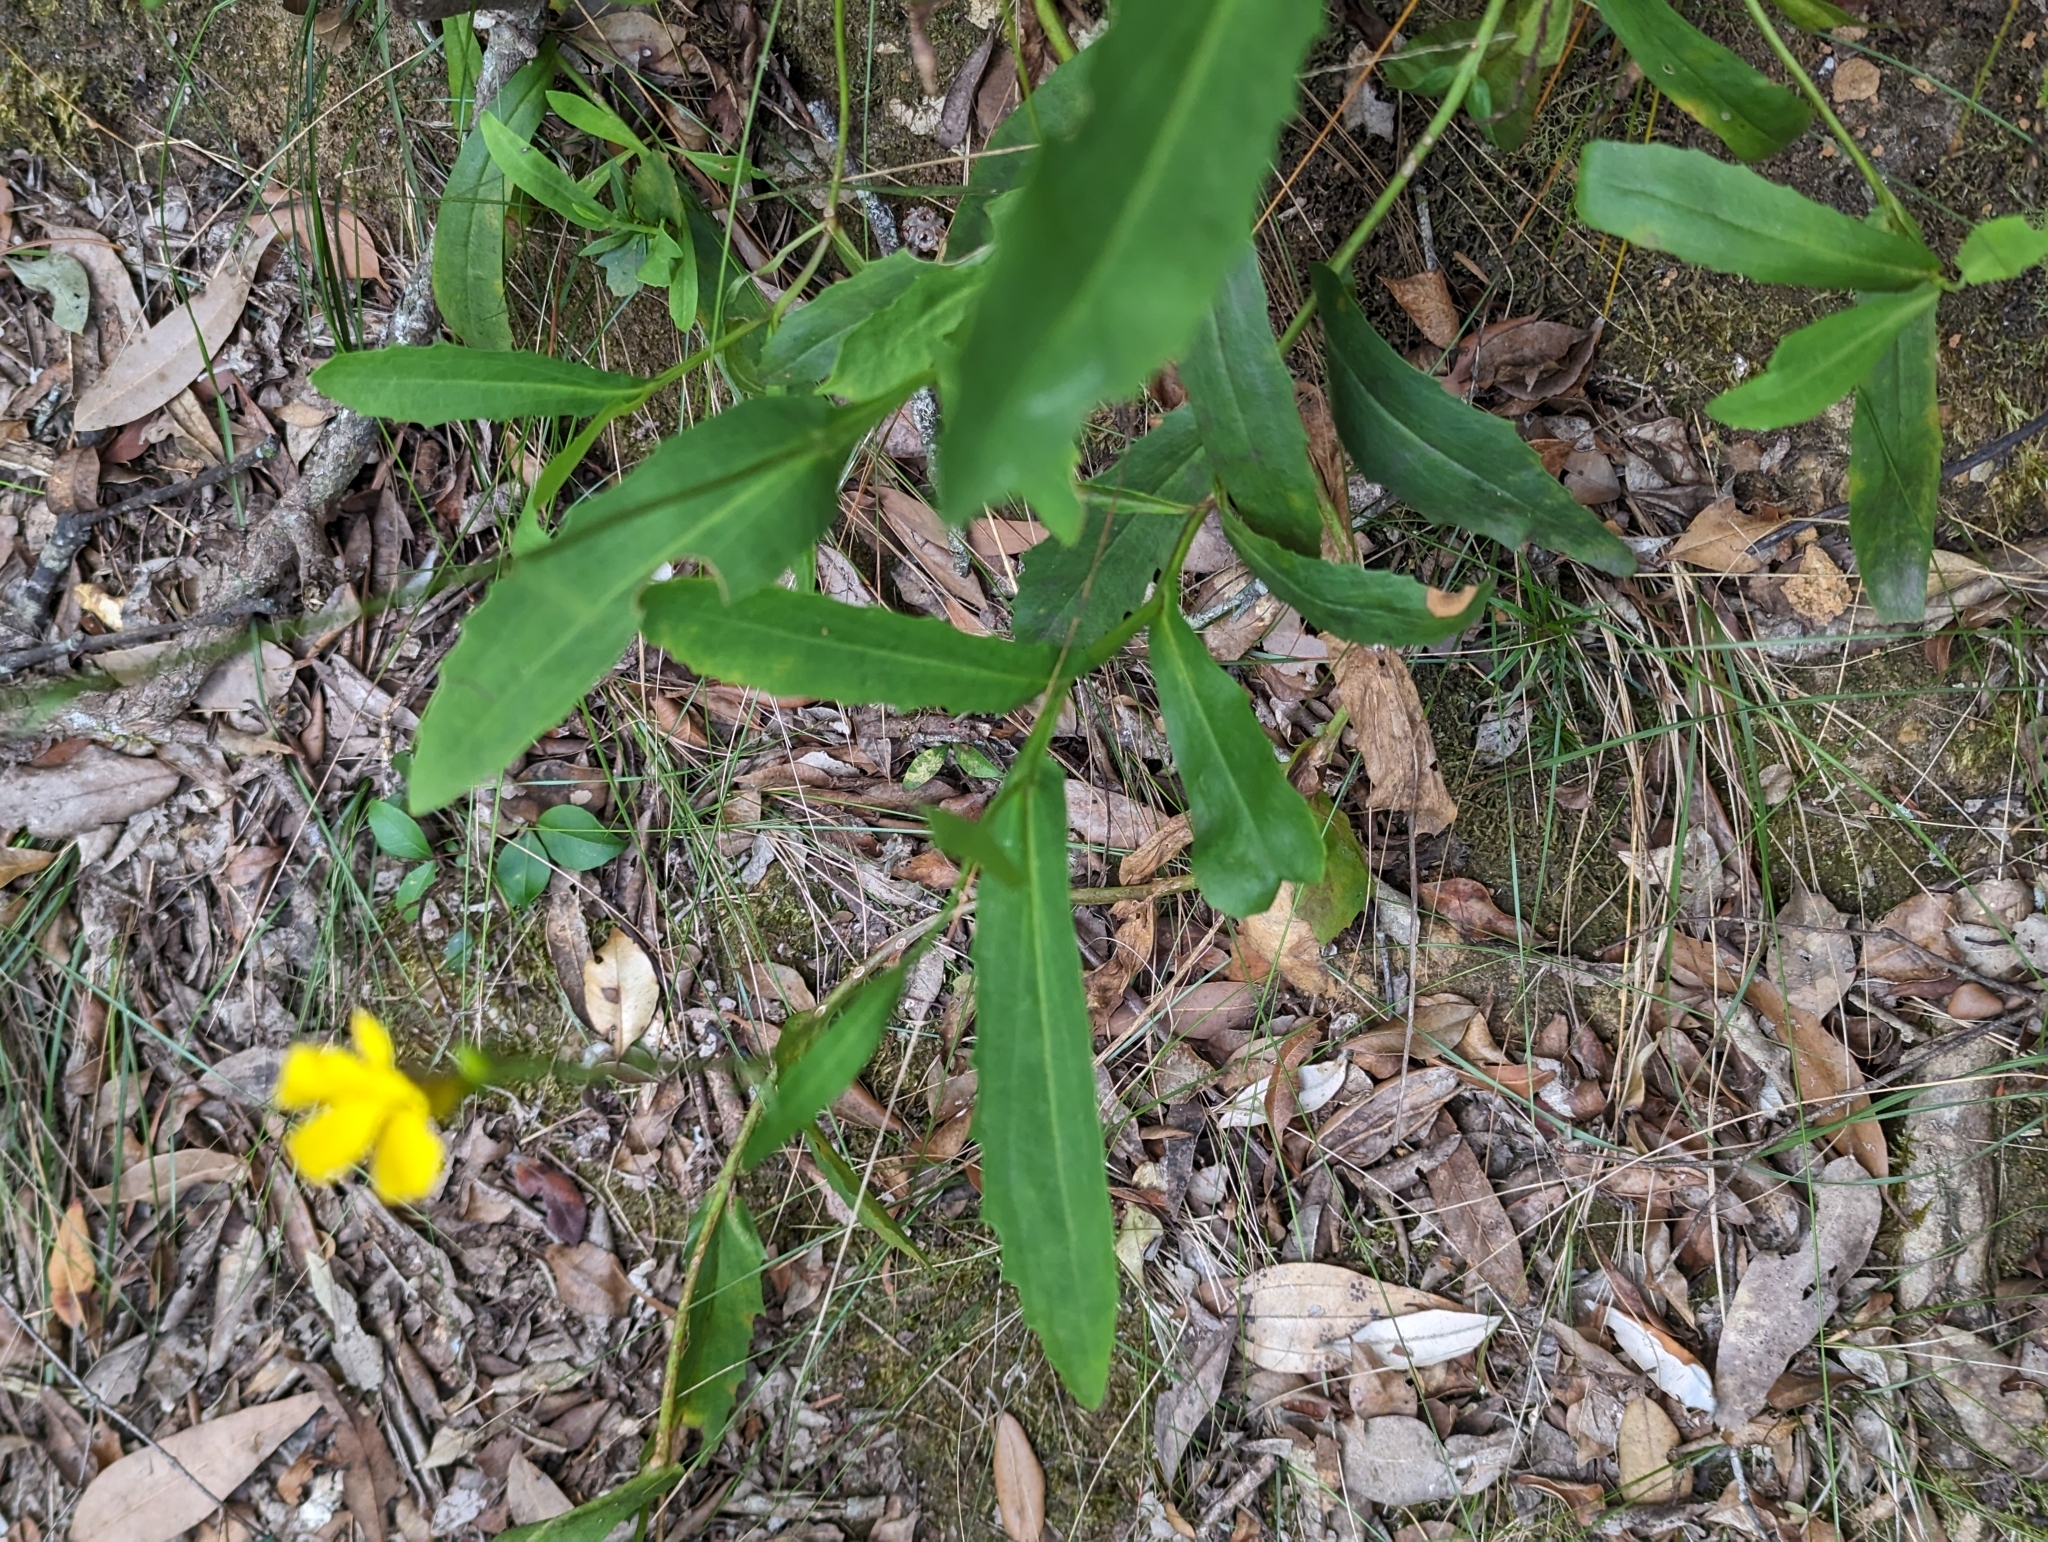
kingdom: Plantae
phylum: Tracheophyta
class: Magnoliopsida
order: Asterales
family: Goodeniaceae
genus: Goodenia
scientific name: Goodenia decurrens
